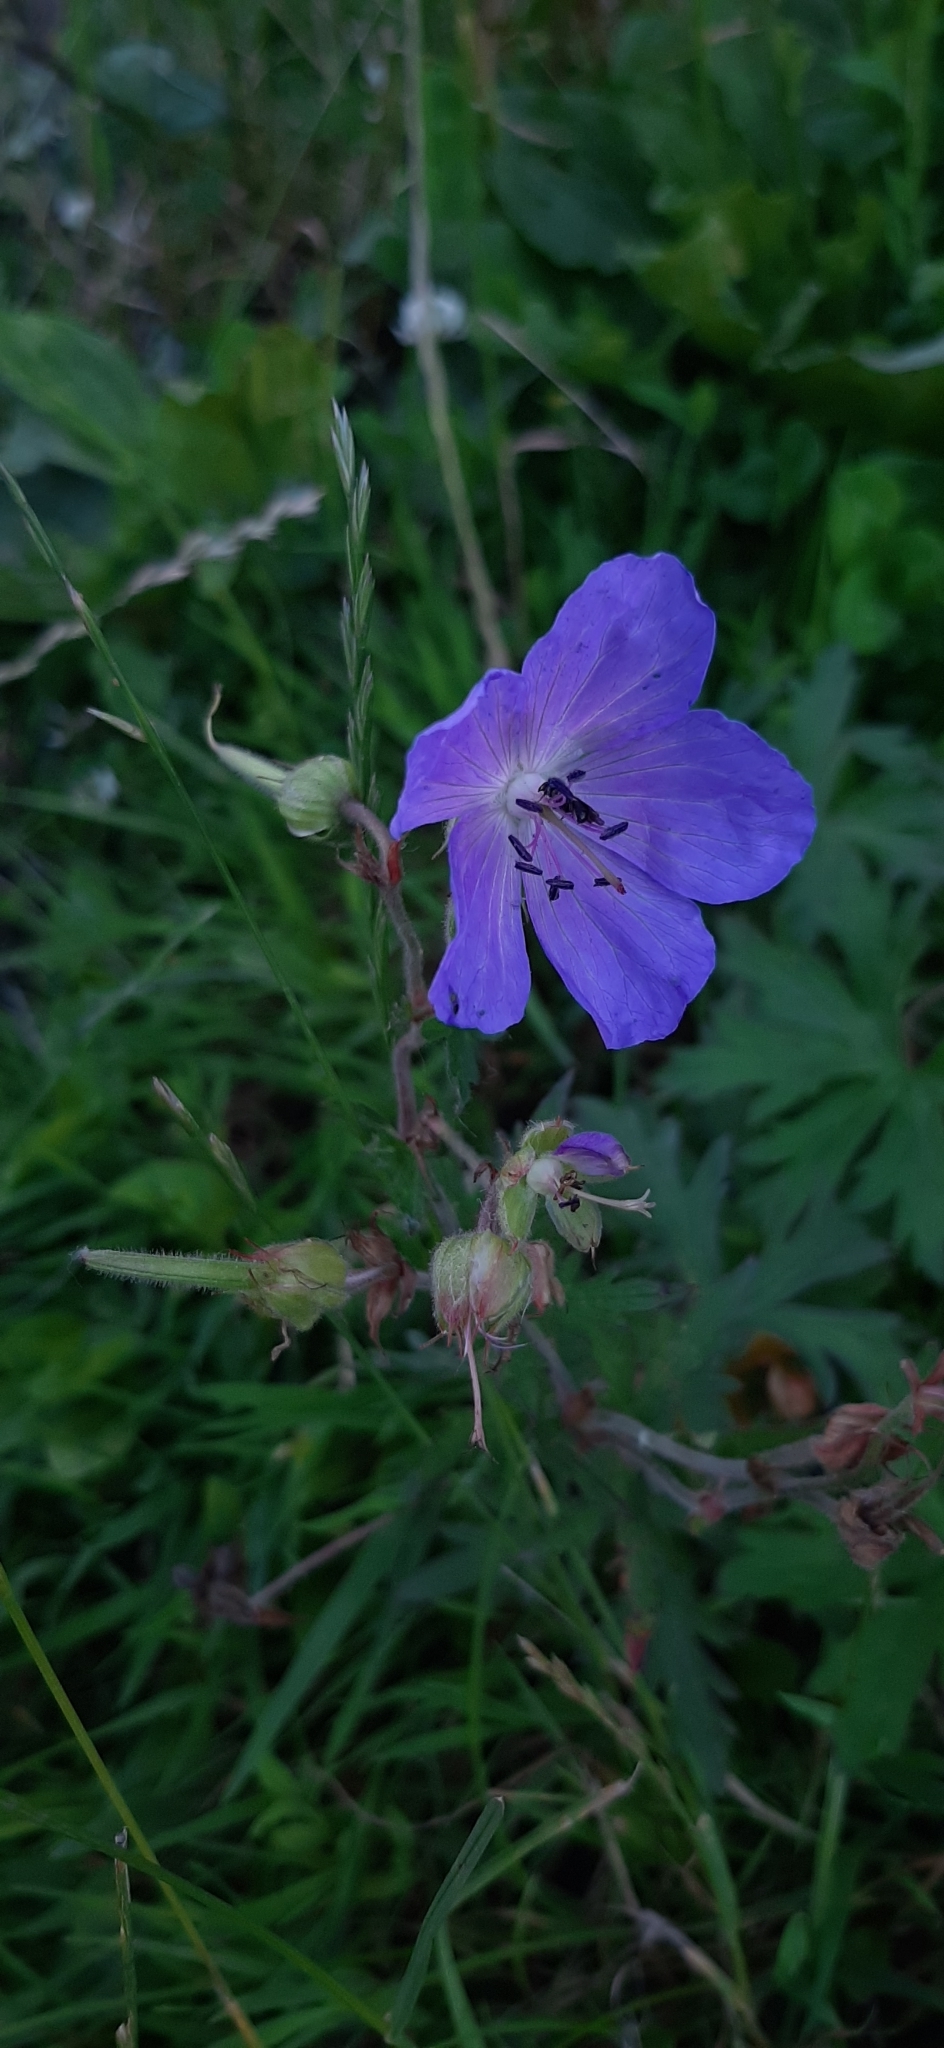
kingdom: Plantae
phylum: Tracheophyta
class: Magnoliopsida
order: Geraniales
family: Geraniaceae
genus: Geranium
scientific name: Geranium pratense
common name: Meadow crane's-bill
